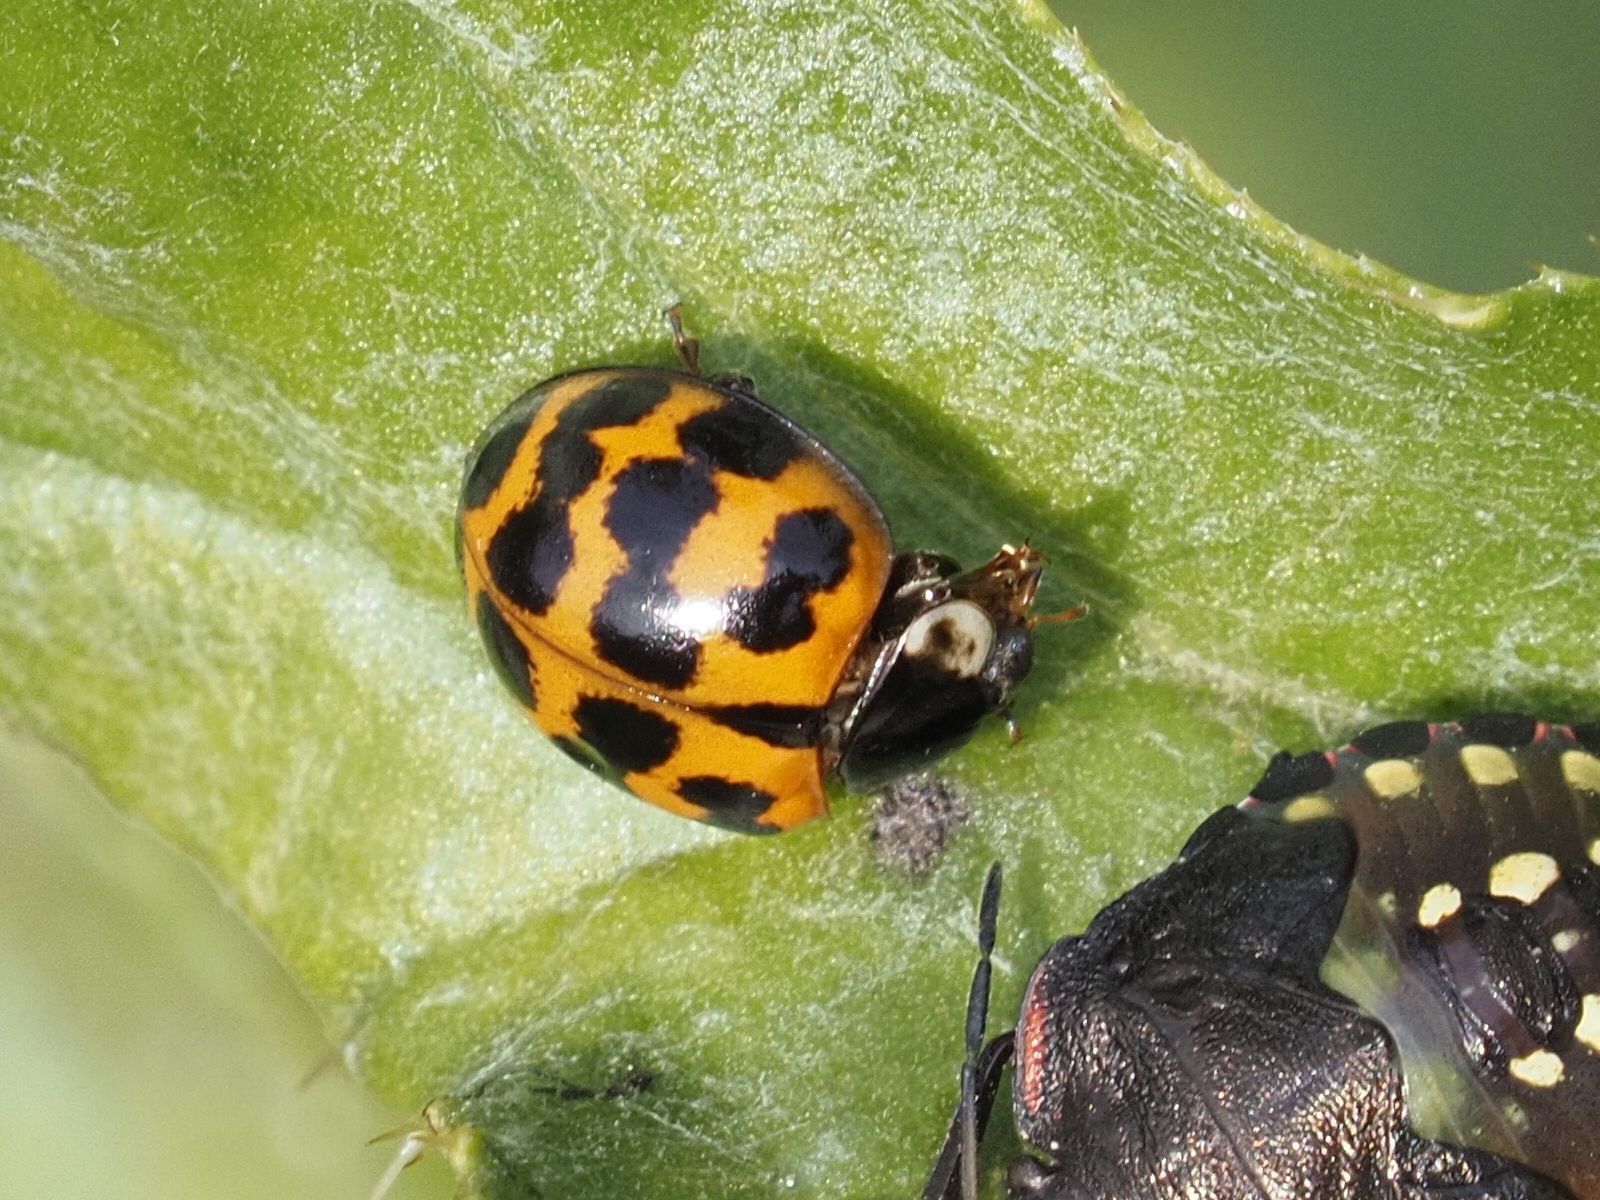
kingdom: Animalia
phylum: Arthropoda
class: Insecta
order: Coleoptera
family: Coccinellidae
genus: Harmonia
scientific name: Harmonia axyridis
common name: Harlequin ladybird
